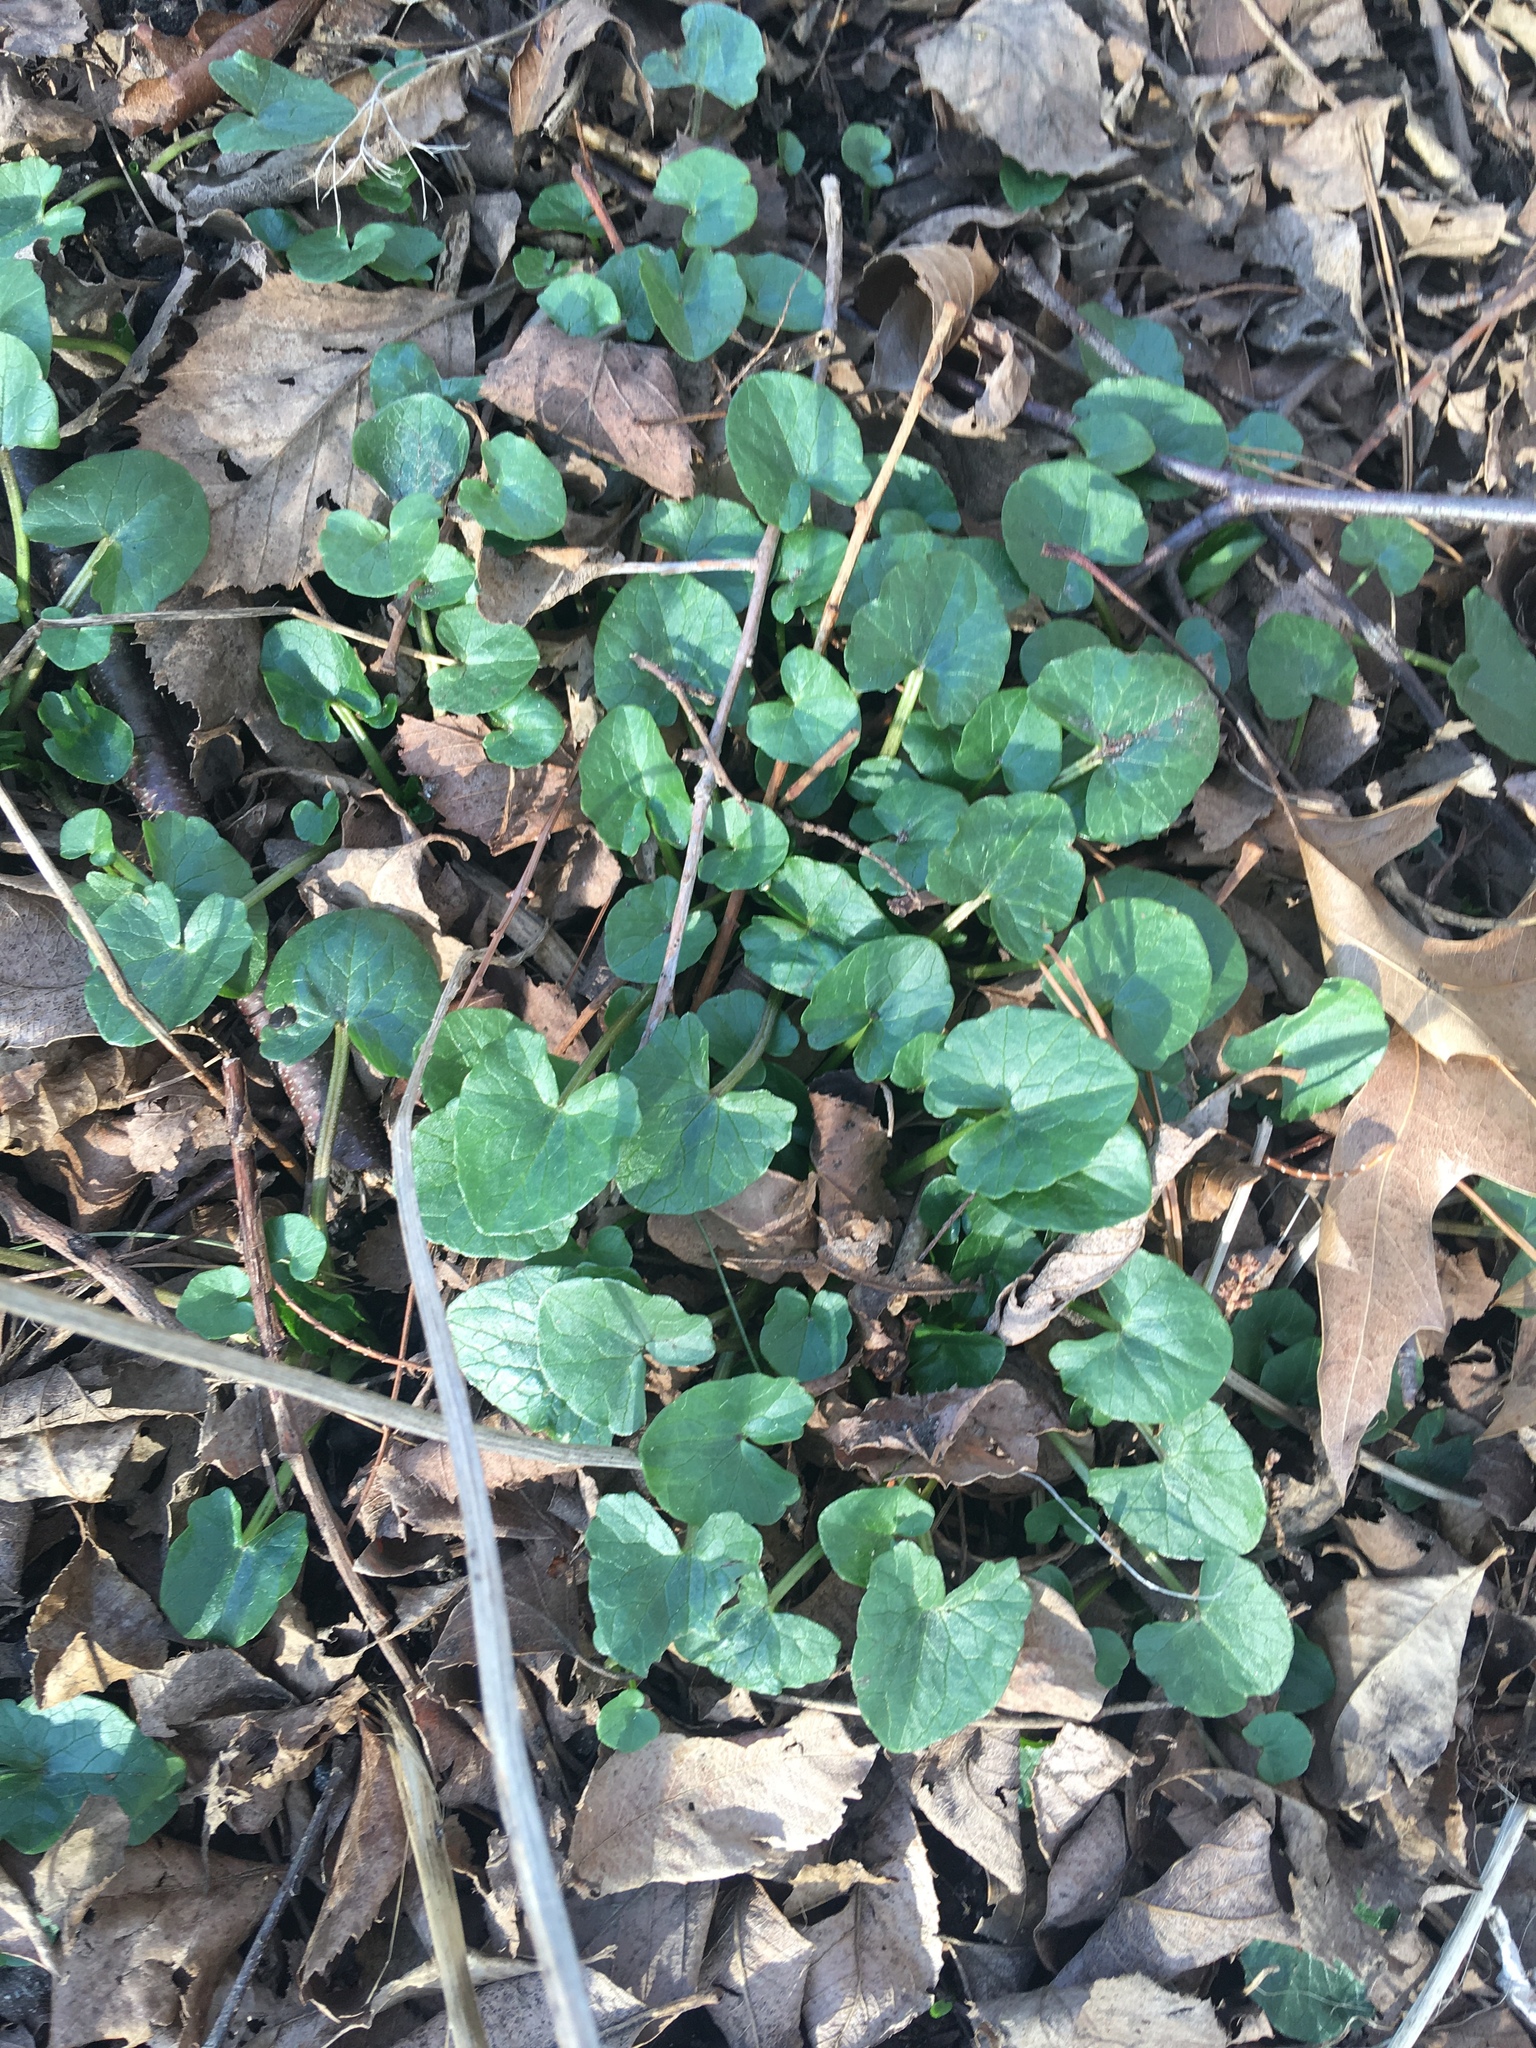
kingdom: Plantae
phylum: Tracheophyta
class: Magnoliopsida
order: Ranunculales
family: Ranunculaceae
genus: Ficaria
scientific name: Ficaria verna
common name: Lesser celandine
